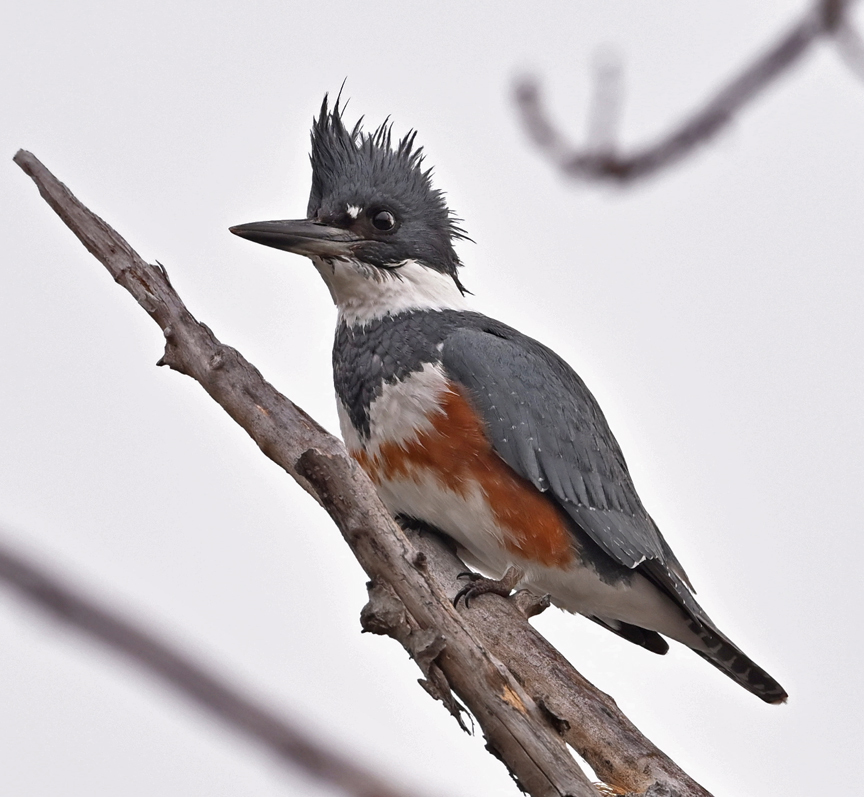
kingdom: Animalia
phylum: Chordata
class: Aves
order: Coraciiformes
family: Alcedinidae
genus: Megaceryle
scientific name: Megaceryle alcyon
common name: Belted kingfisher
